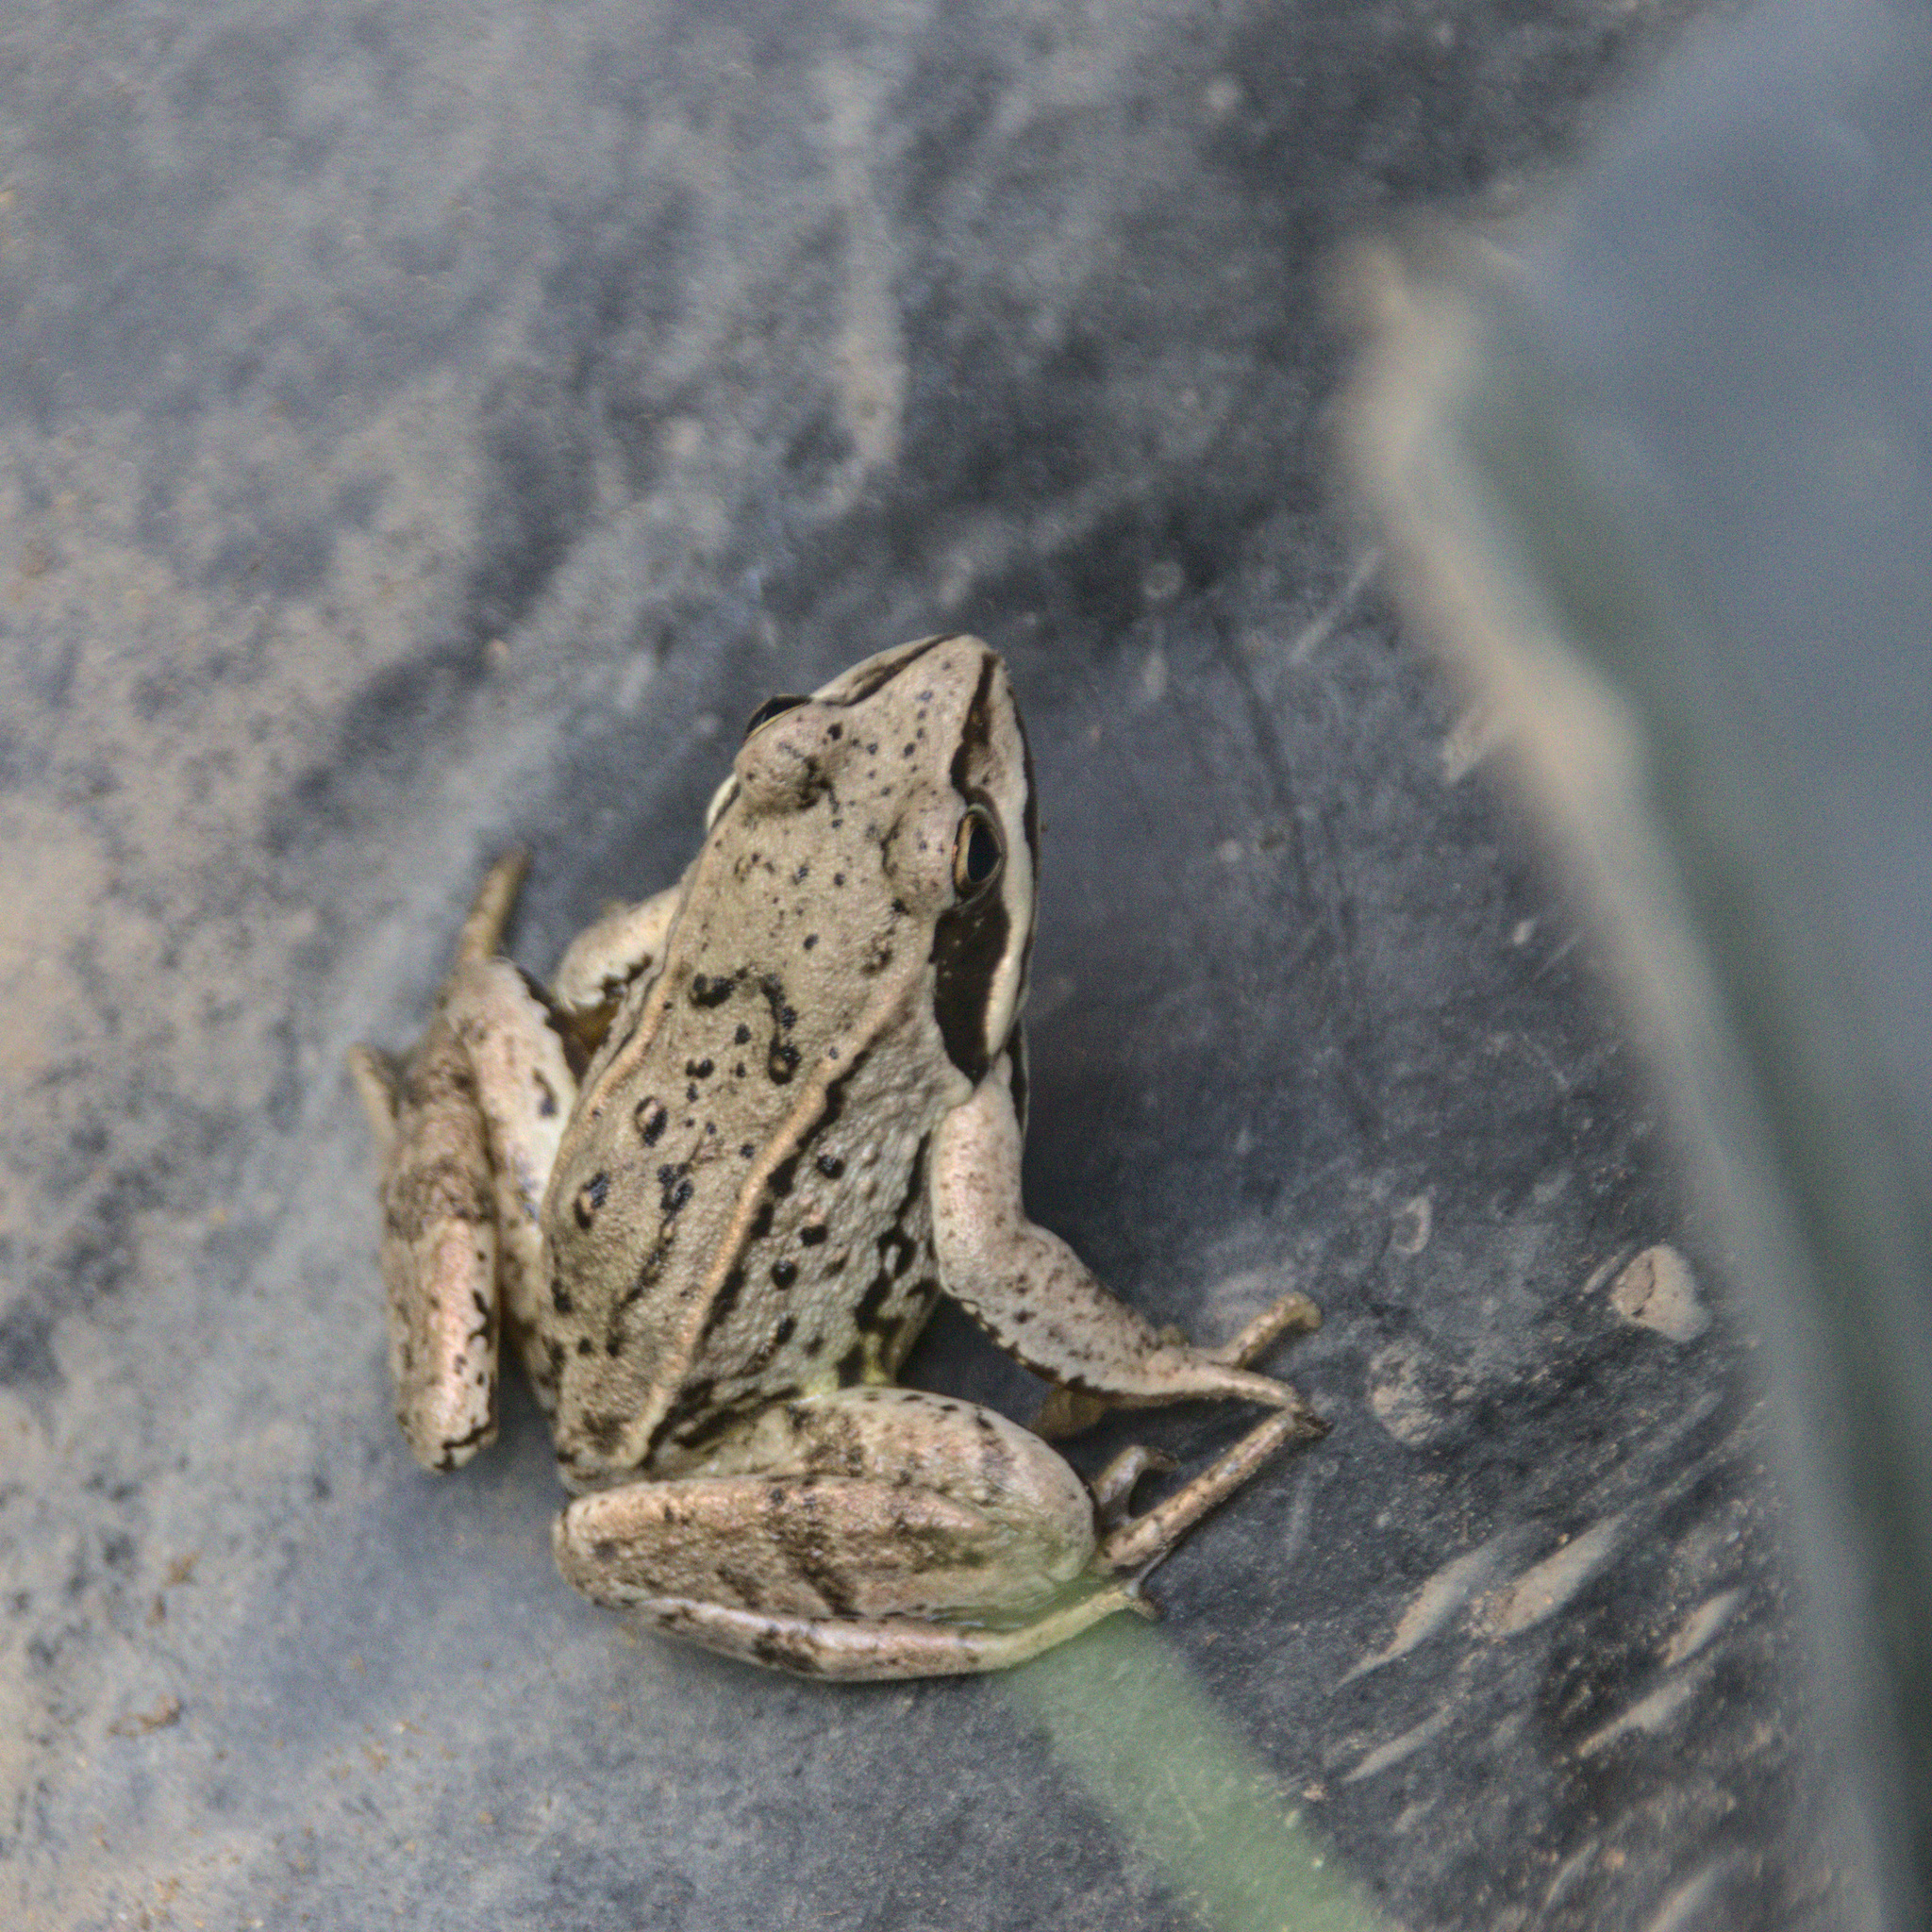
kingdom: Animalia
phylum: Chordata
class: Amphibia
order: Anura
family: Ranidae
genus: Rana
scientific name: Rana arvalis
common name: Moor frog
